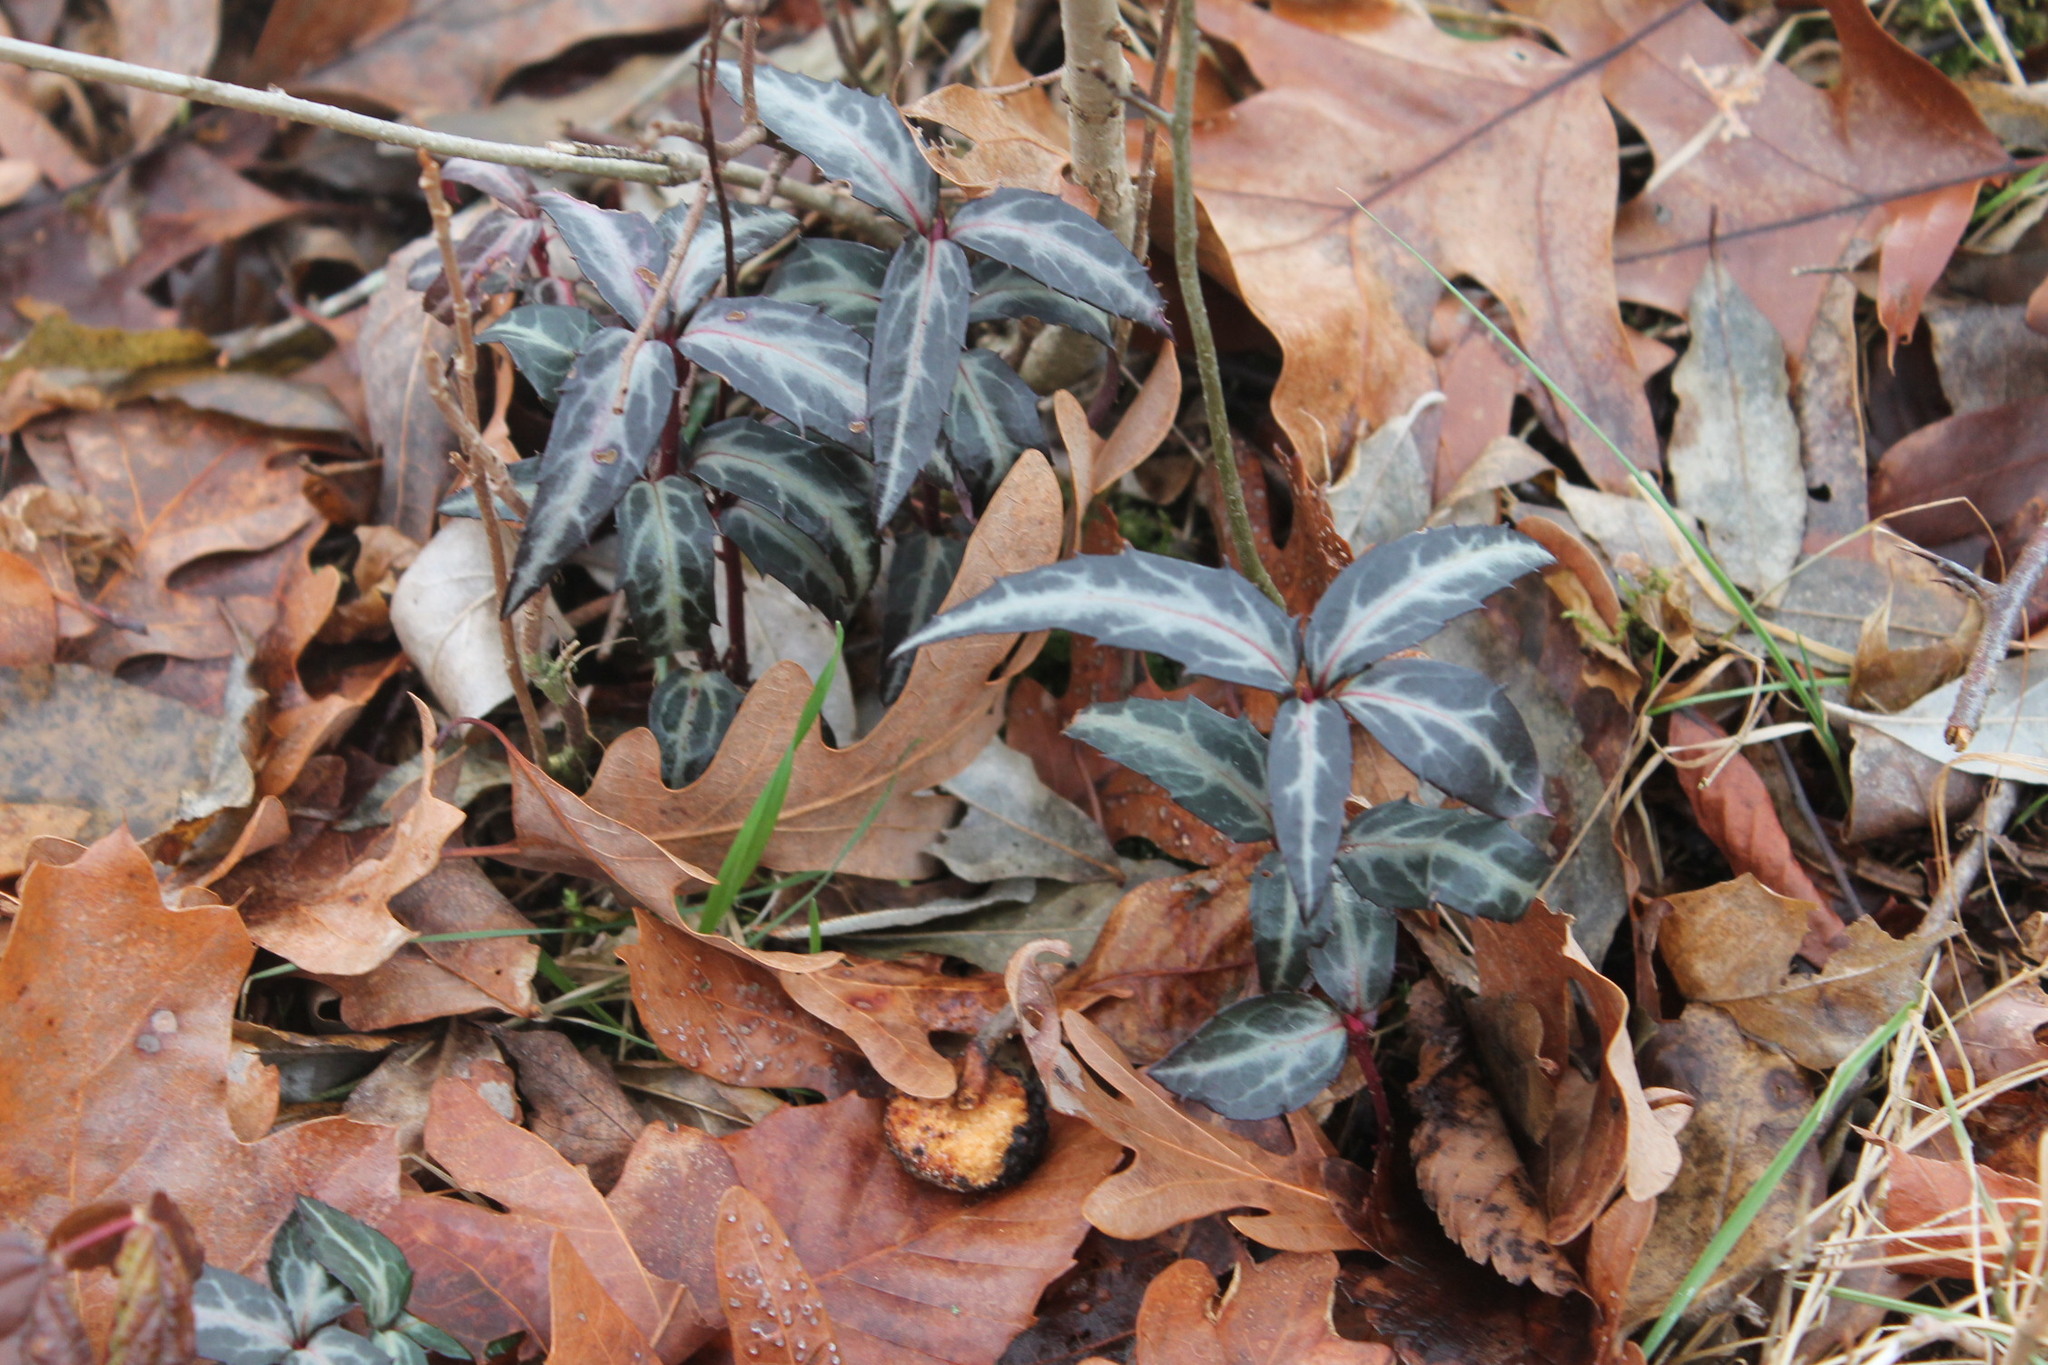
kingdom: Plantae
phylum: Tracheophyta
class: Magnoliopsida
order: Ericales
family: Ericaceae
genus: Chimaphila
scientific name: Chimaphila maculata
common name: Spotted pipsissewa
